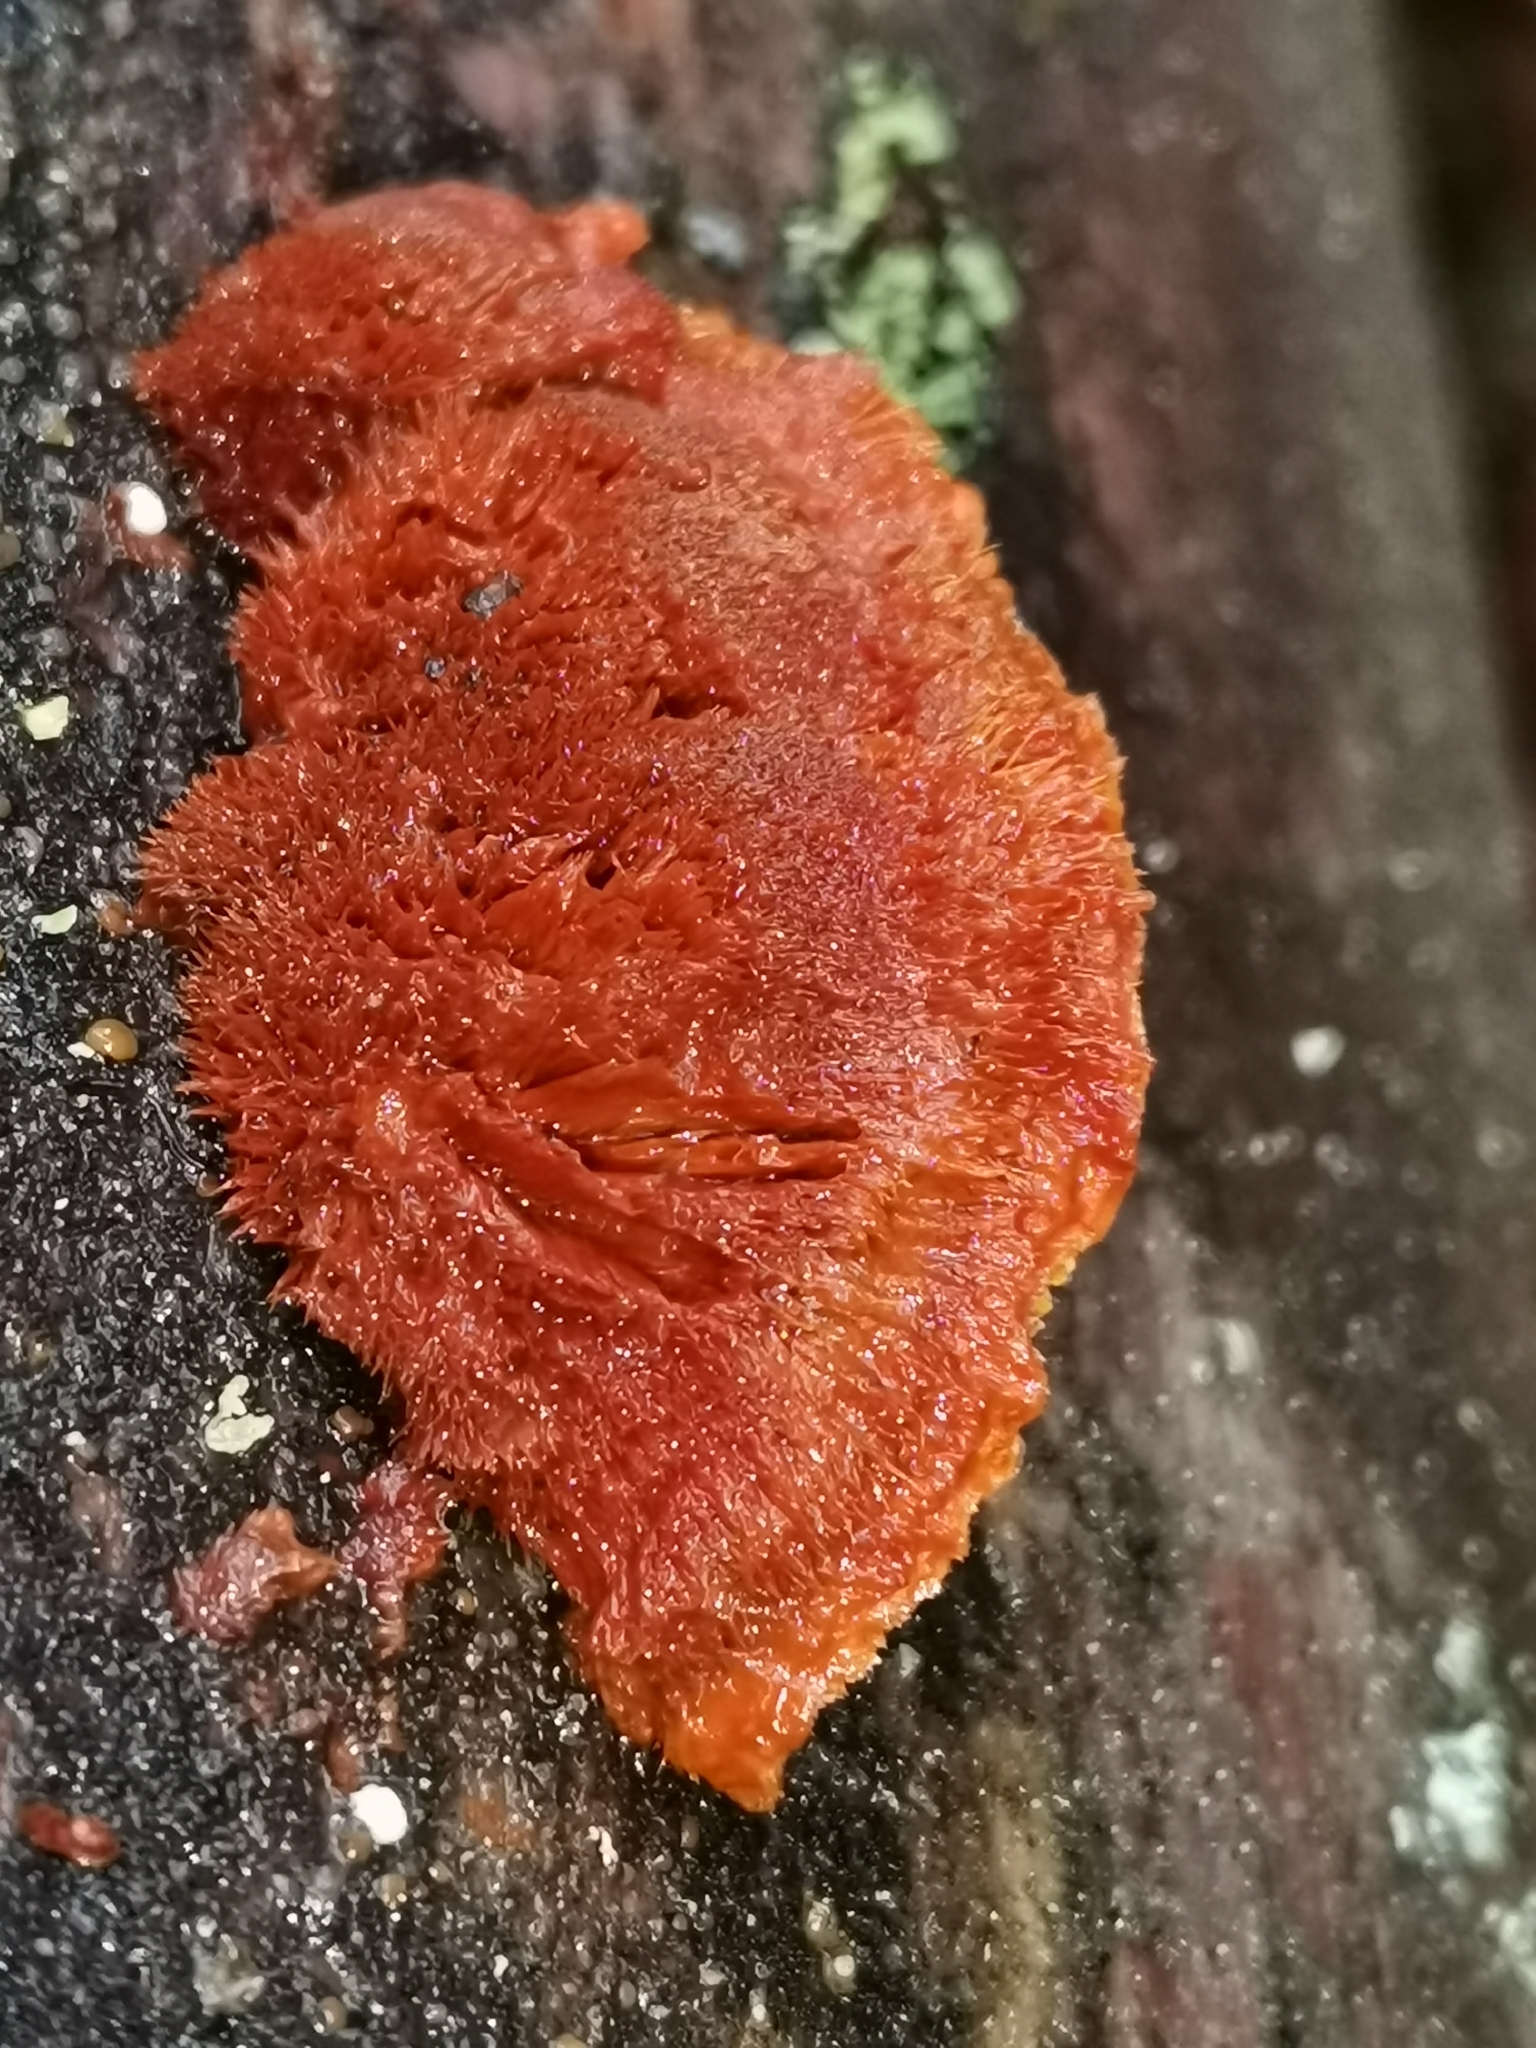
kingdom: Fungi
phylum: Basidiomycota
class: Agaricomycetes
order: Polyporales
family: Pycnoporellaceae
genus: Pycnoporellus
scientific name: Pycnoporellus fulgens
